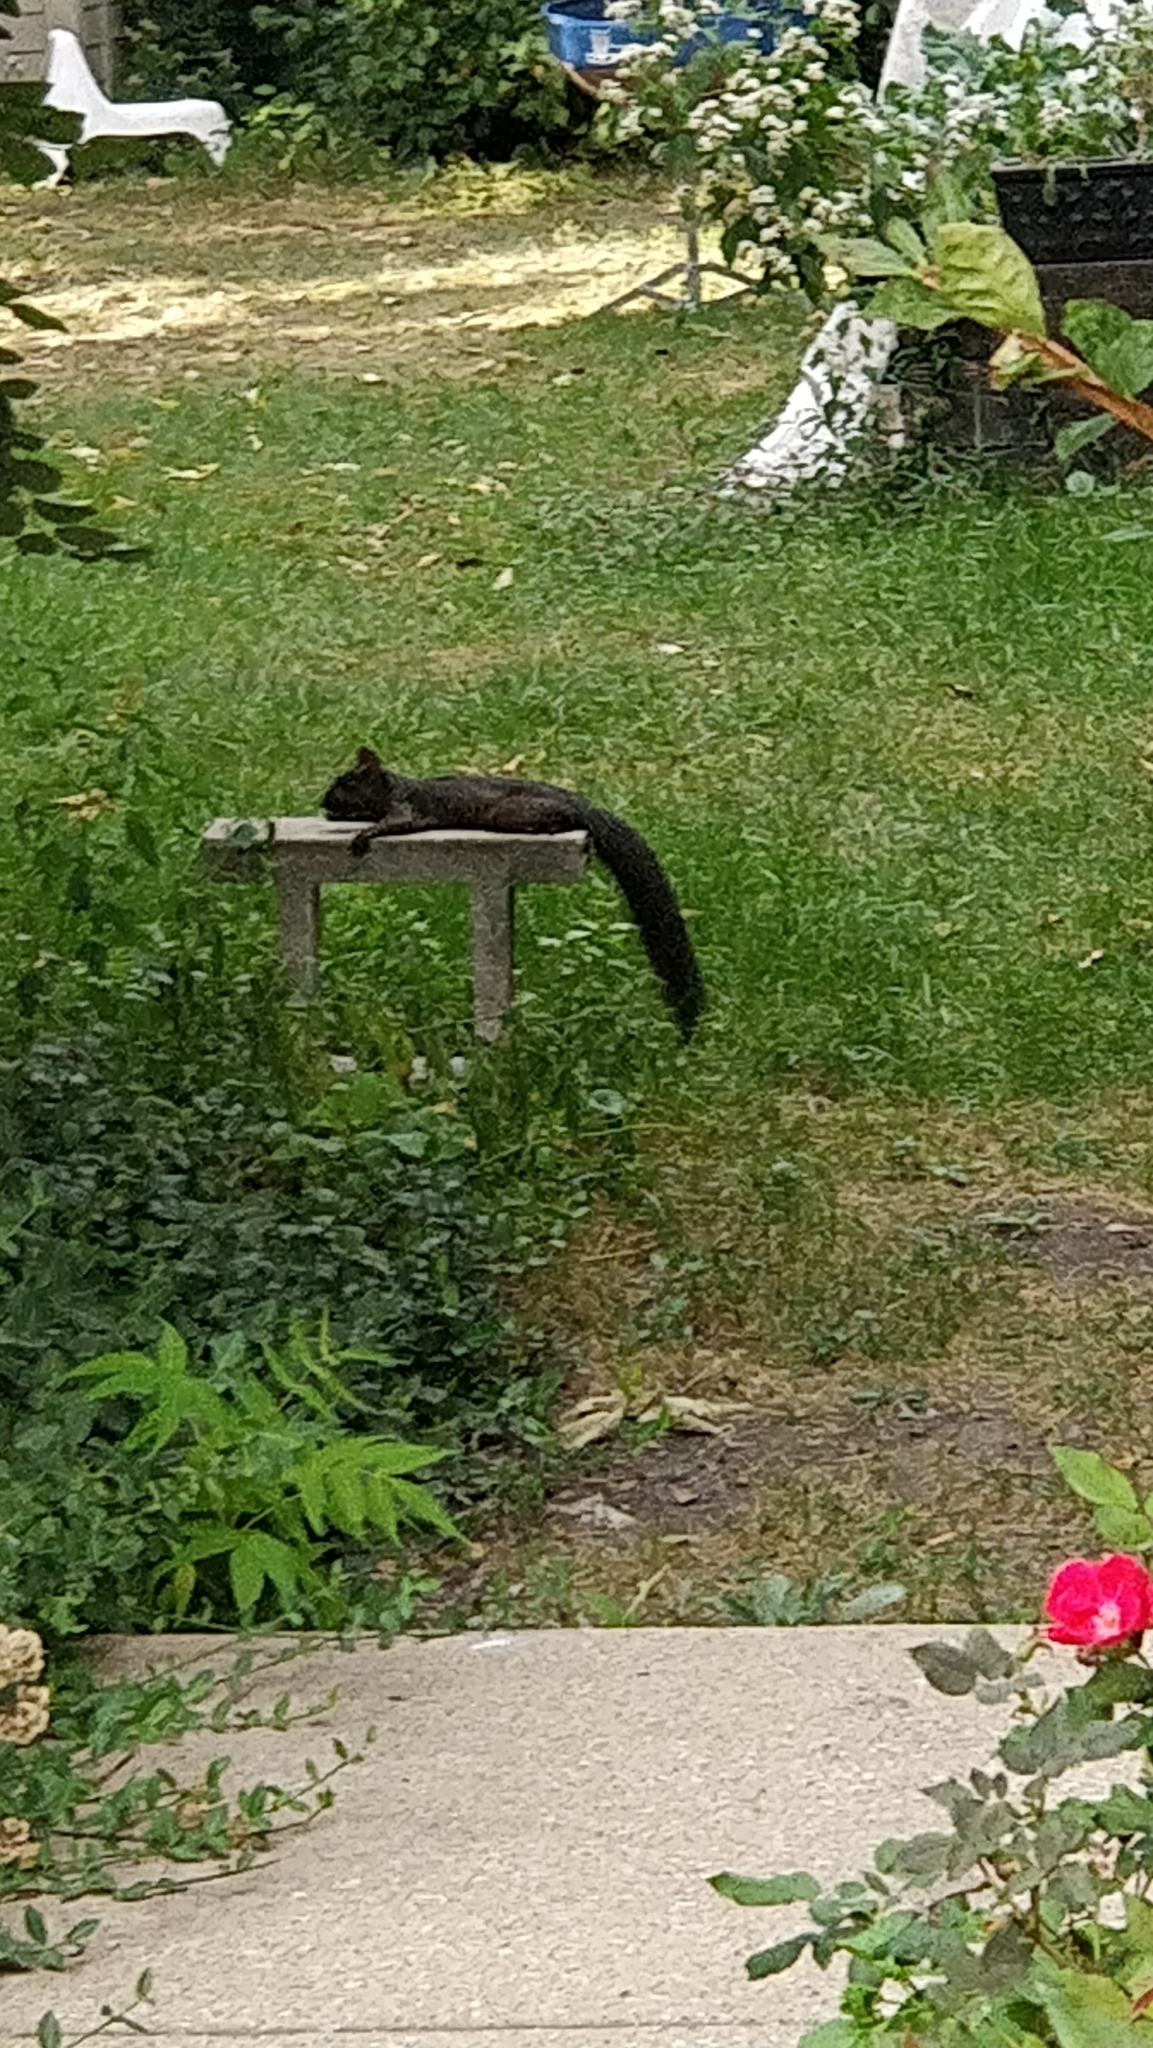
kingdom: Animalia
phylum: Chordata
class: Mammalia
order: Rodentia
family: Sciuridae
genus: Sciurus
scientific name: Sciurus carolinensis
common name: Eastern gray squirrel
